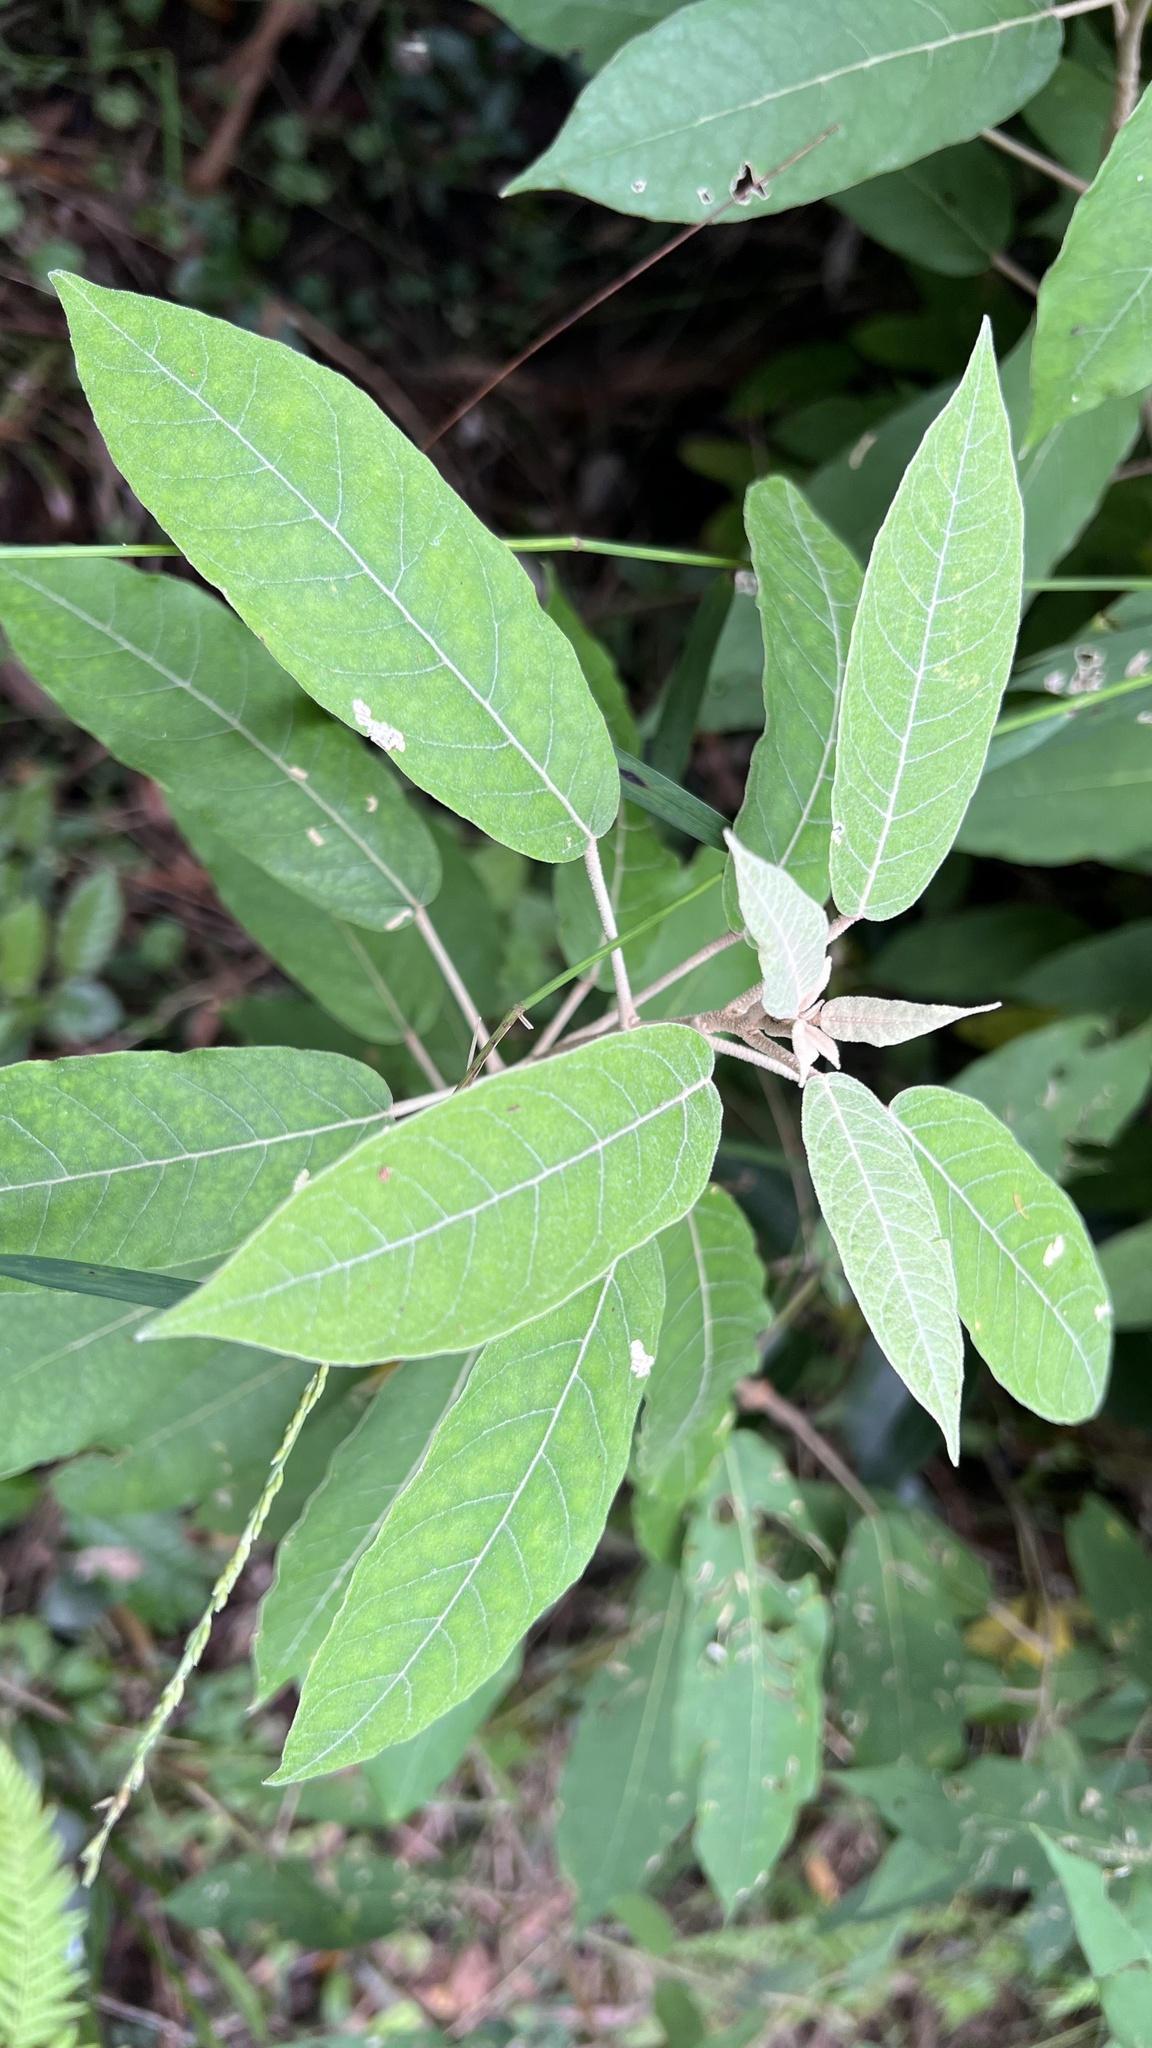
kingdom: Plantae
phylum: Tracheophyta
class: Magnoliopsida
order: Apiales
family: Araliaceae
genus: Astrotricha
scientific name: Astrotricha latifolia
